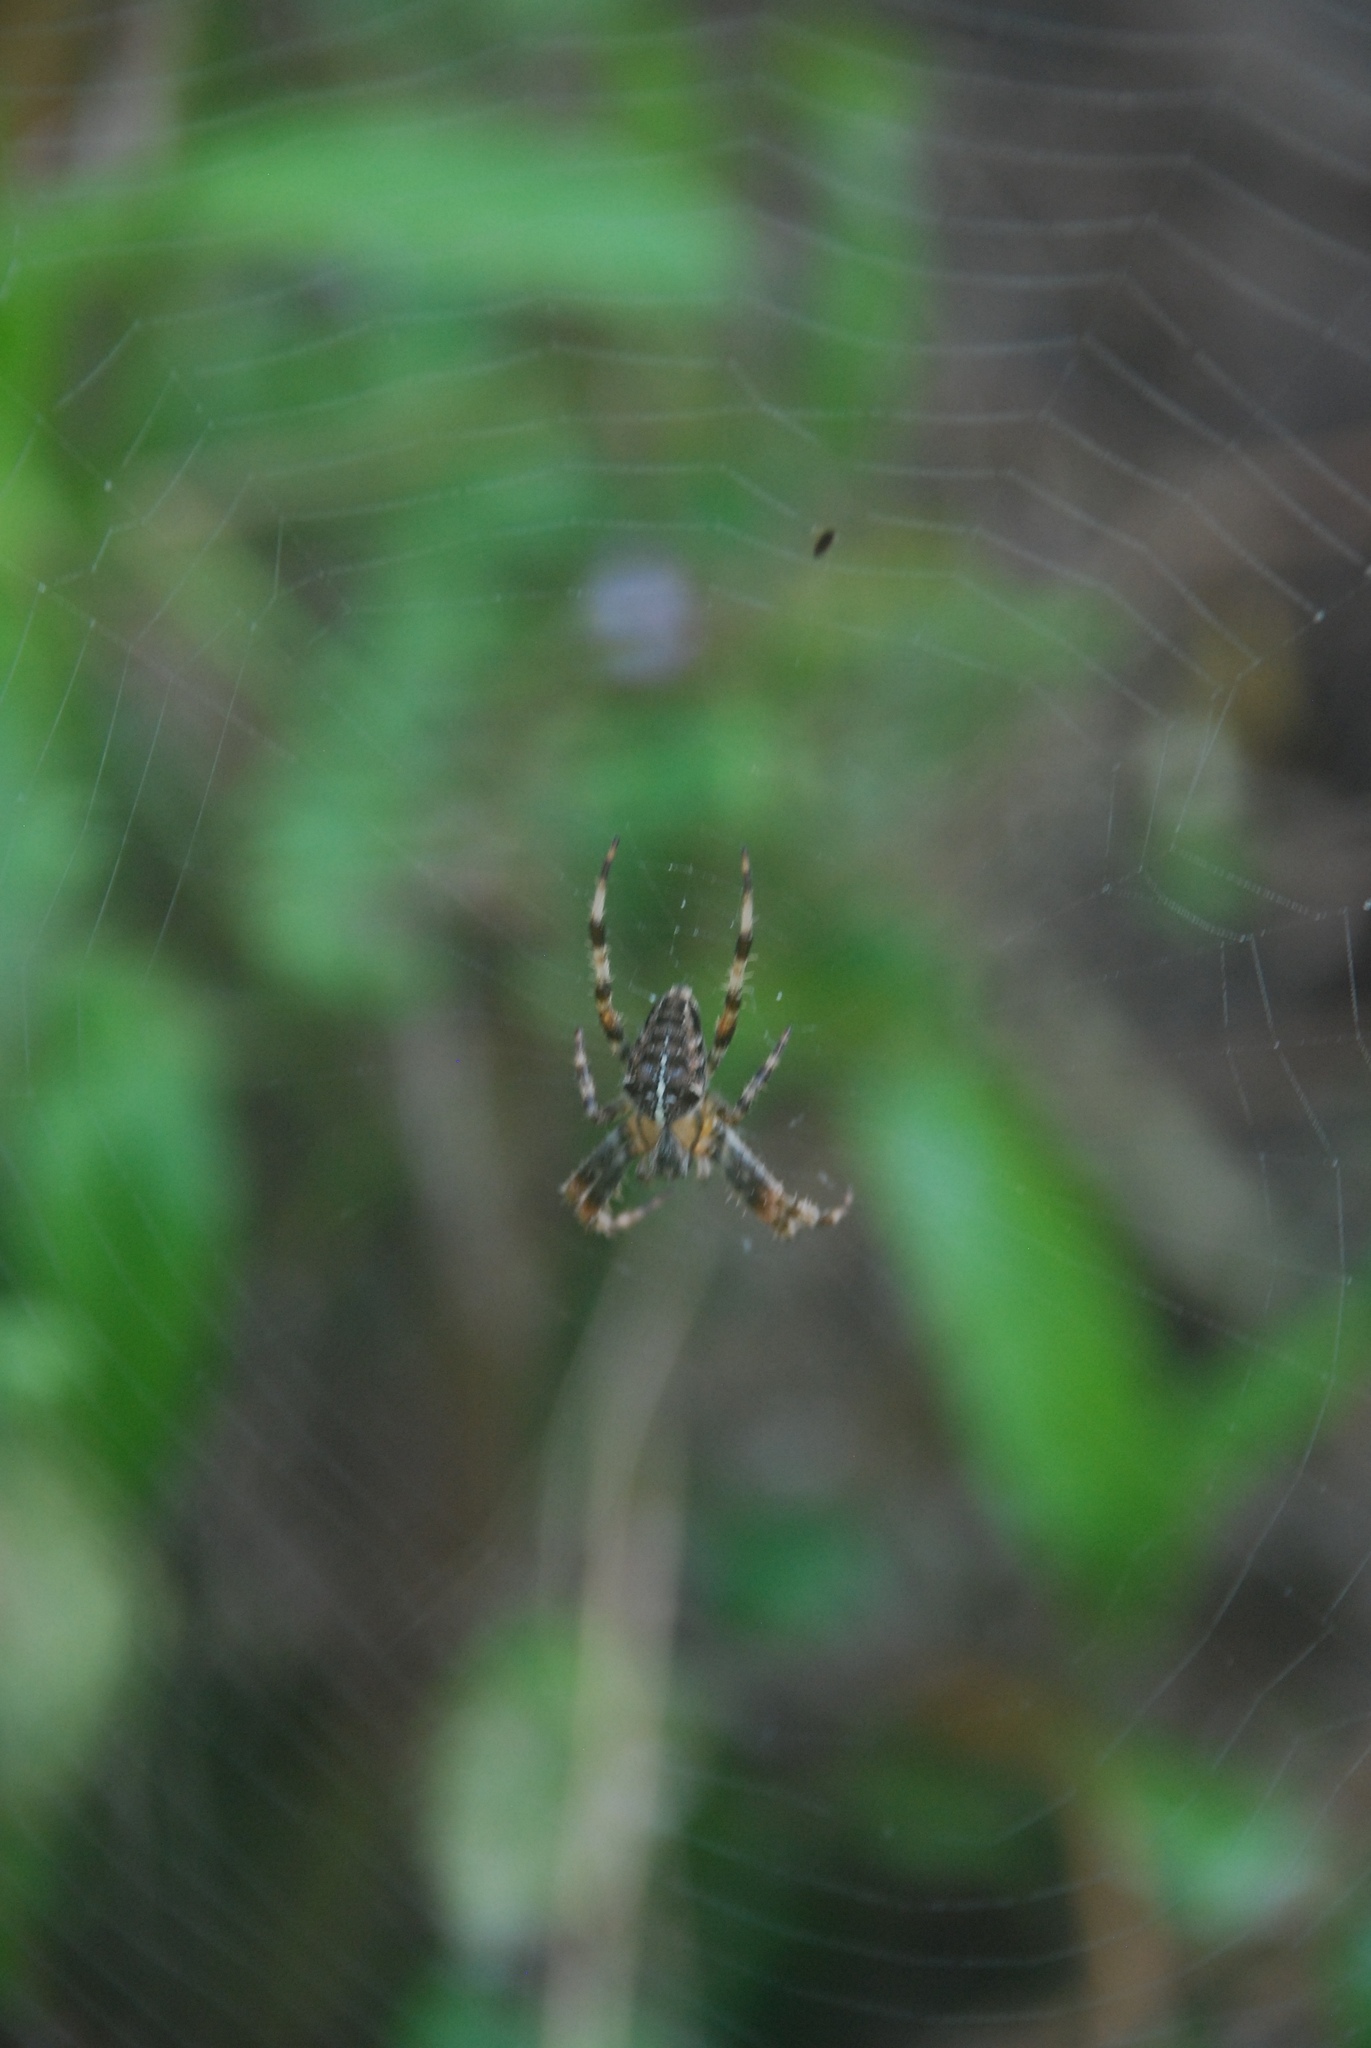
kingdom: Animalia
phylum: Arthropoda
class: Arachnida
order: Araneae
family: Araneidae
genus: Araneus
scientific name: Araneus diadematus
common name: Cross orbweaver
